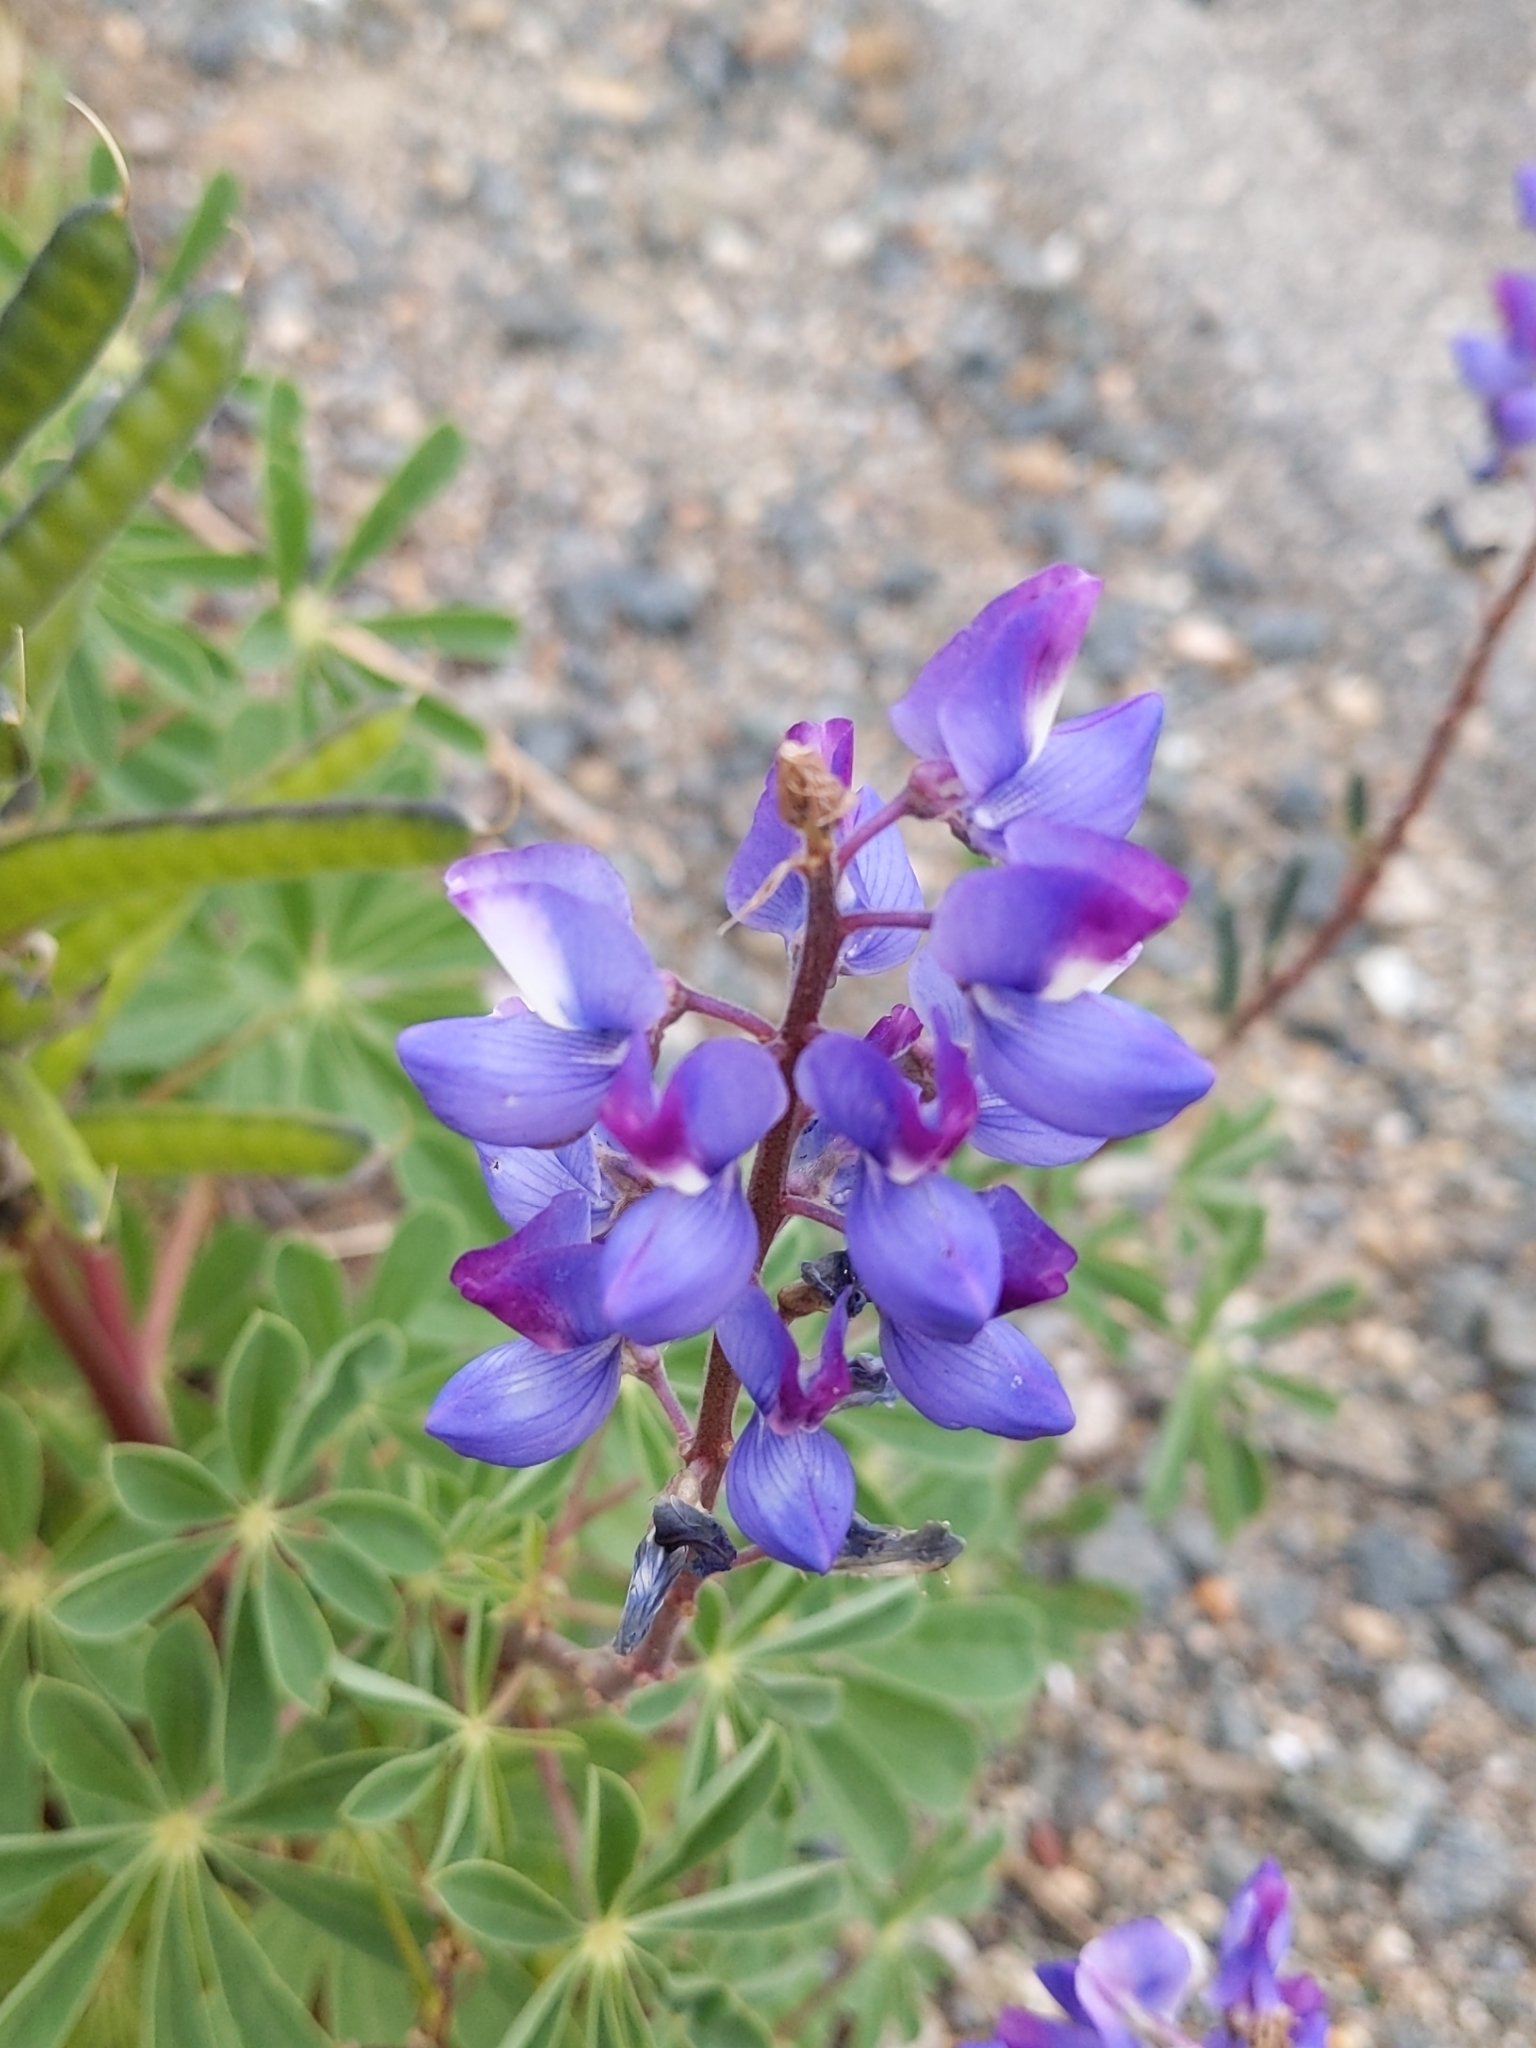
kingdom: Plantae
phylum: Tracheophyta
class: Magnoliopsida
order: Fabales
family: Fabaceae
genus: Lupinus
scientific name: Lupinus succulentus
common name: Arroyo lupine
